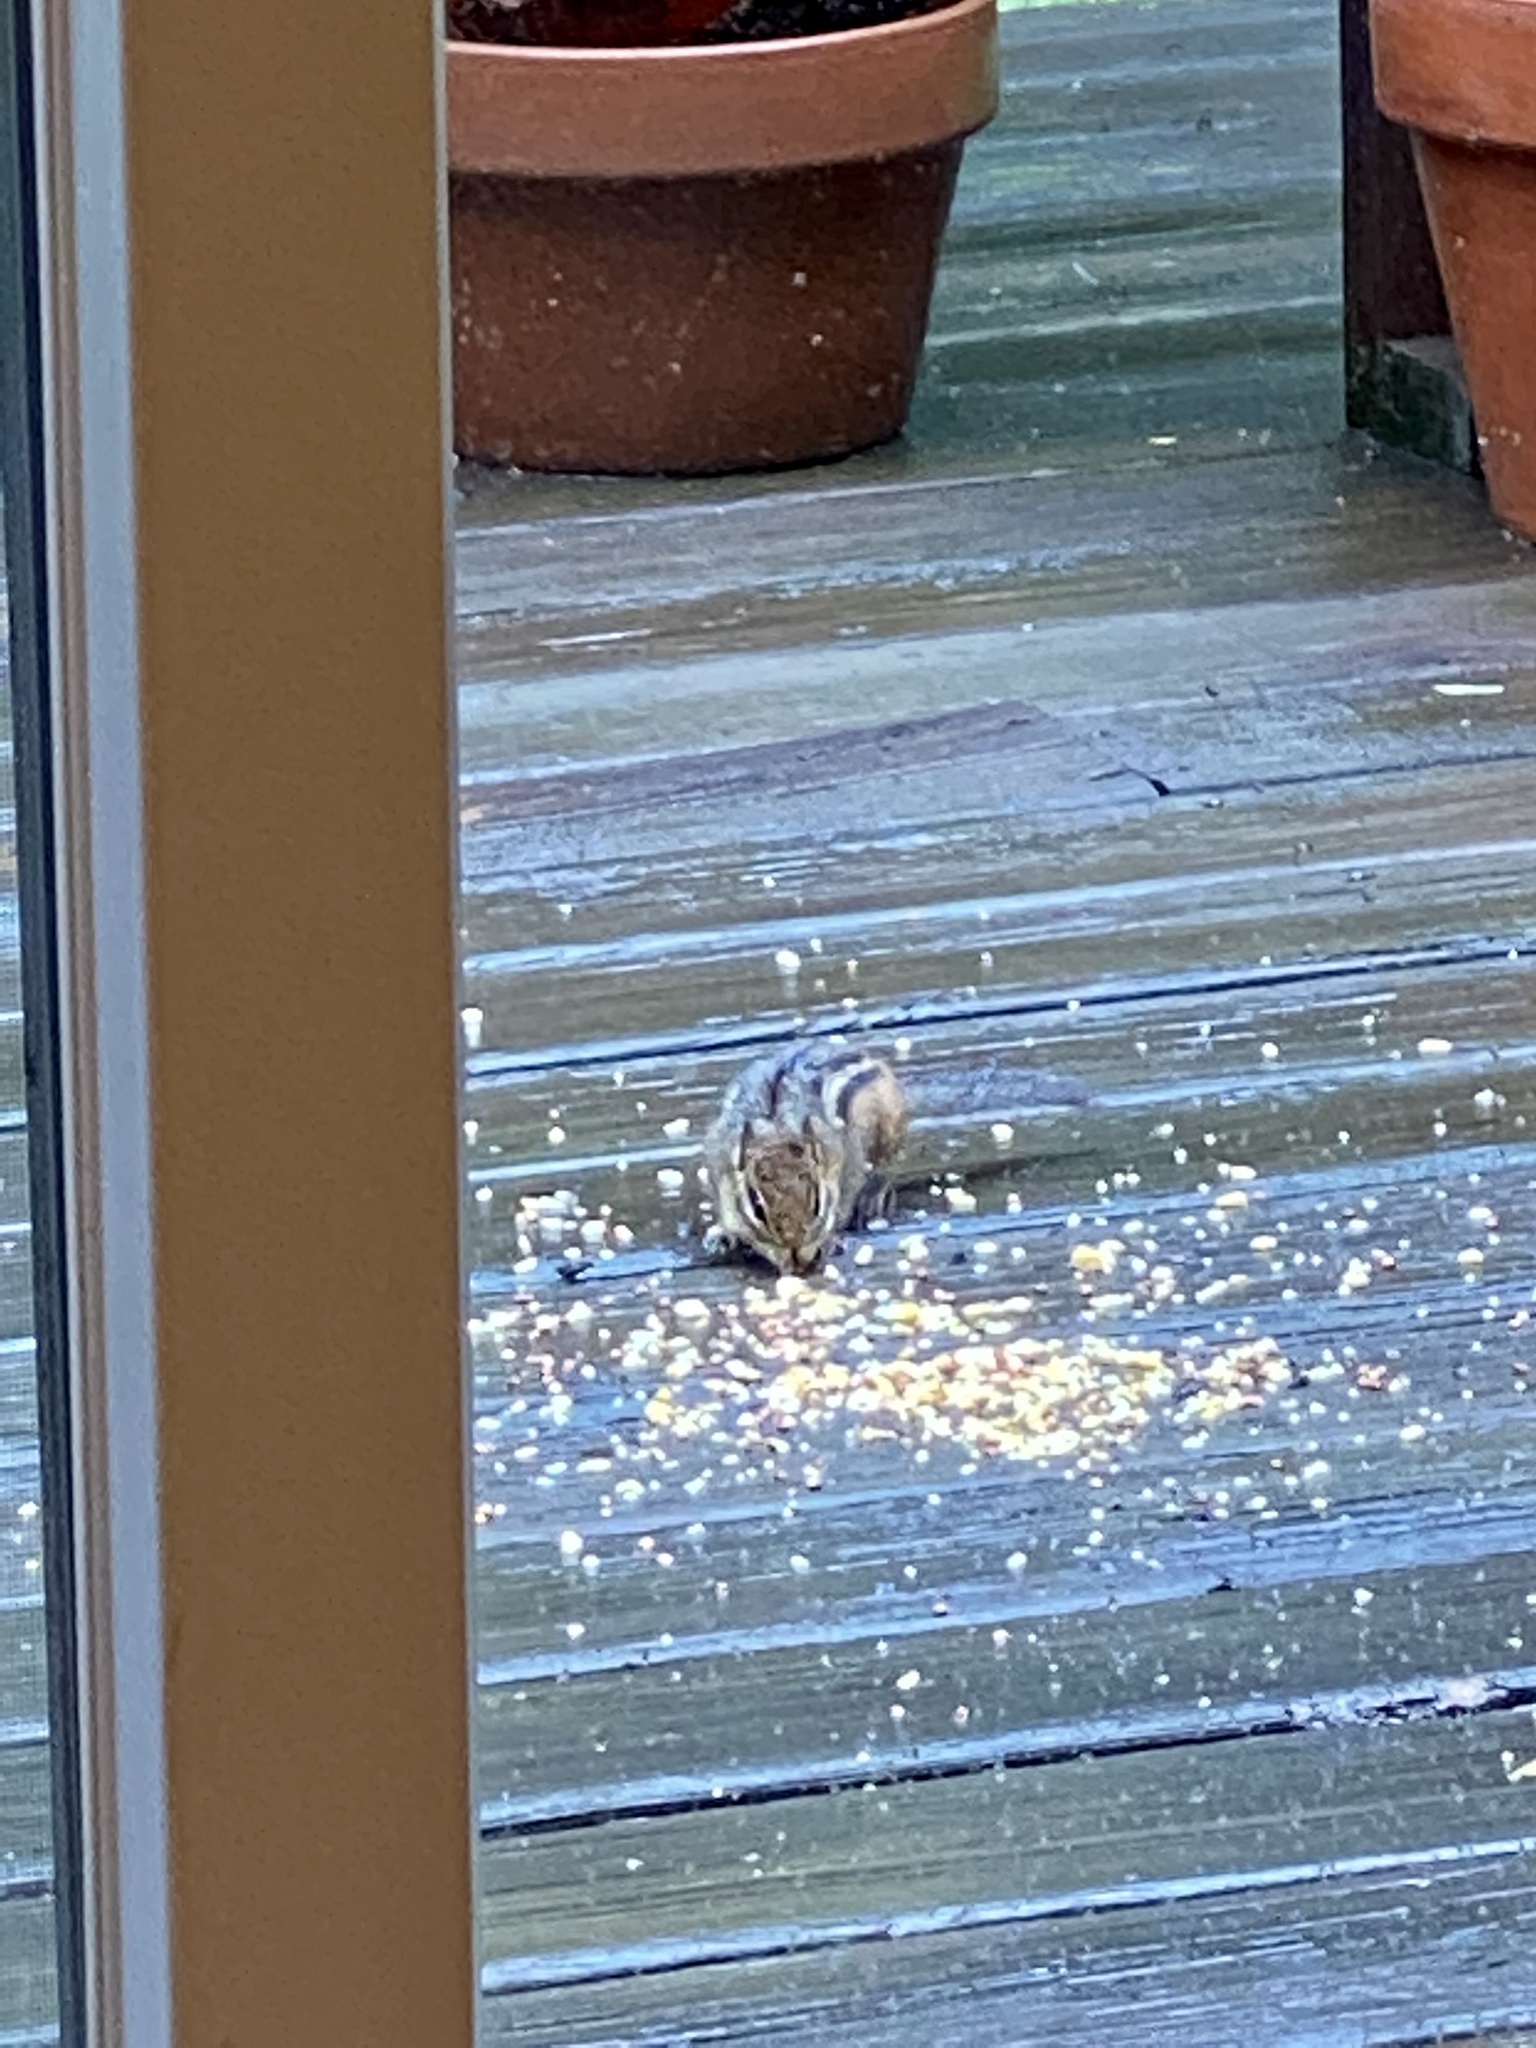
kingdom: Animalia
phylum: Chordata
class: Mammalia
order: Rodentia
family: Sciuridae
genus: Tamias
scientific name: Tamias striatus
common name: Eastern chipmunk
